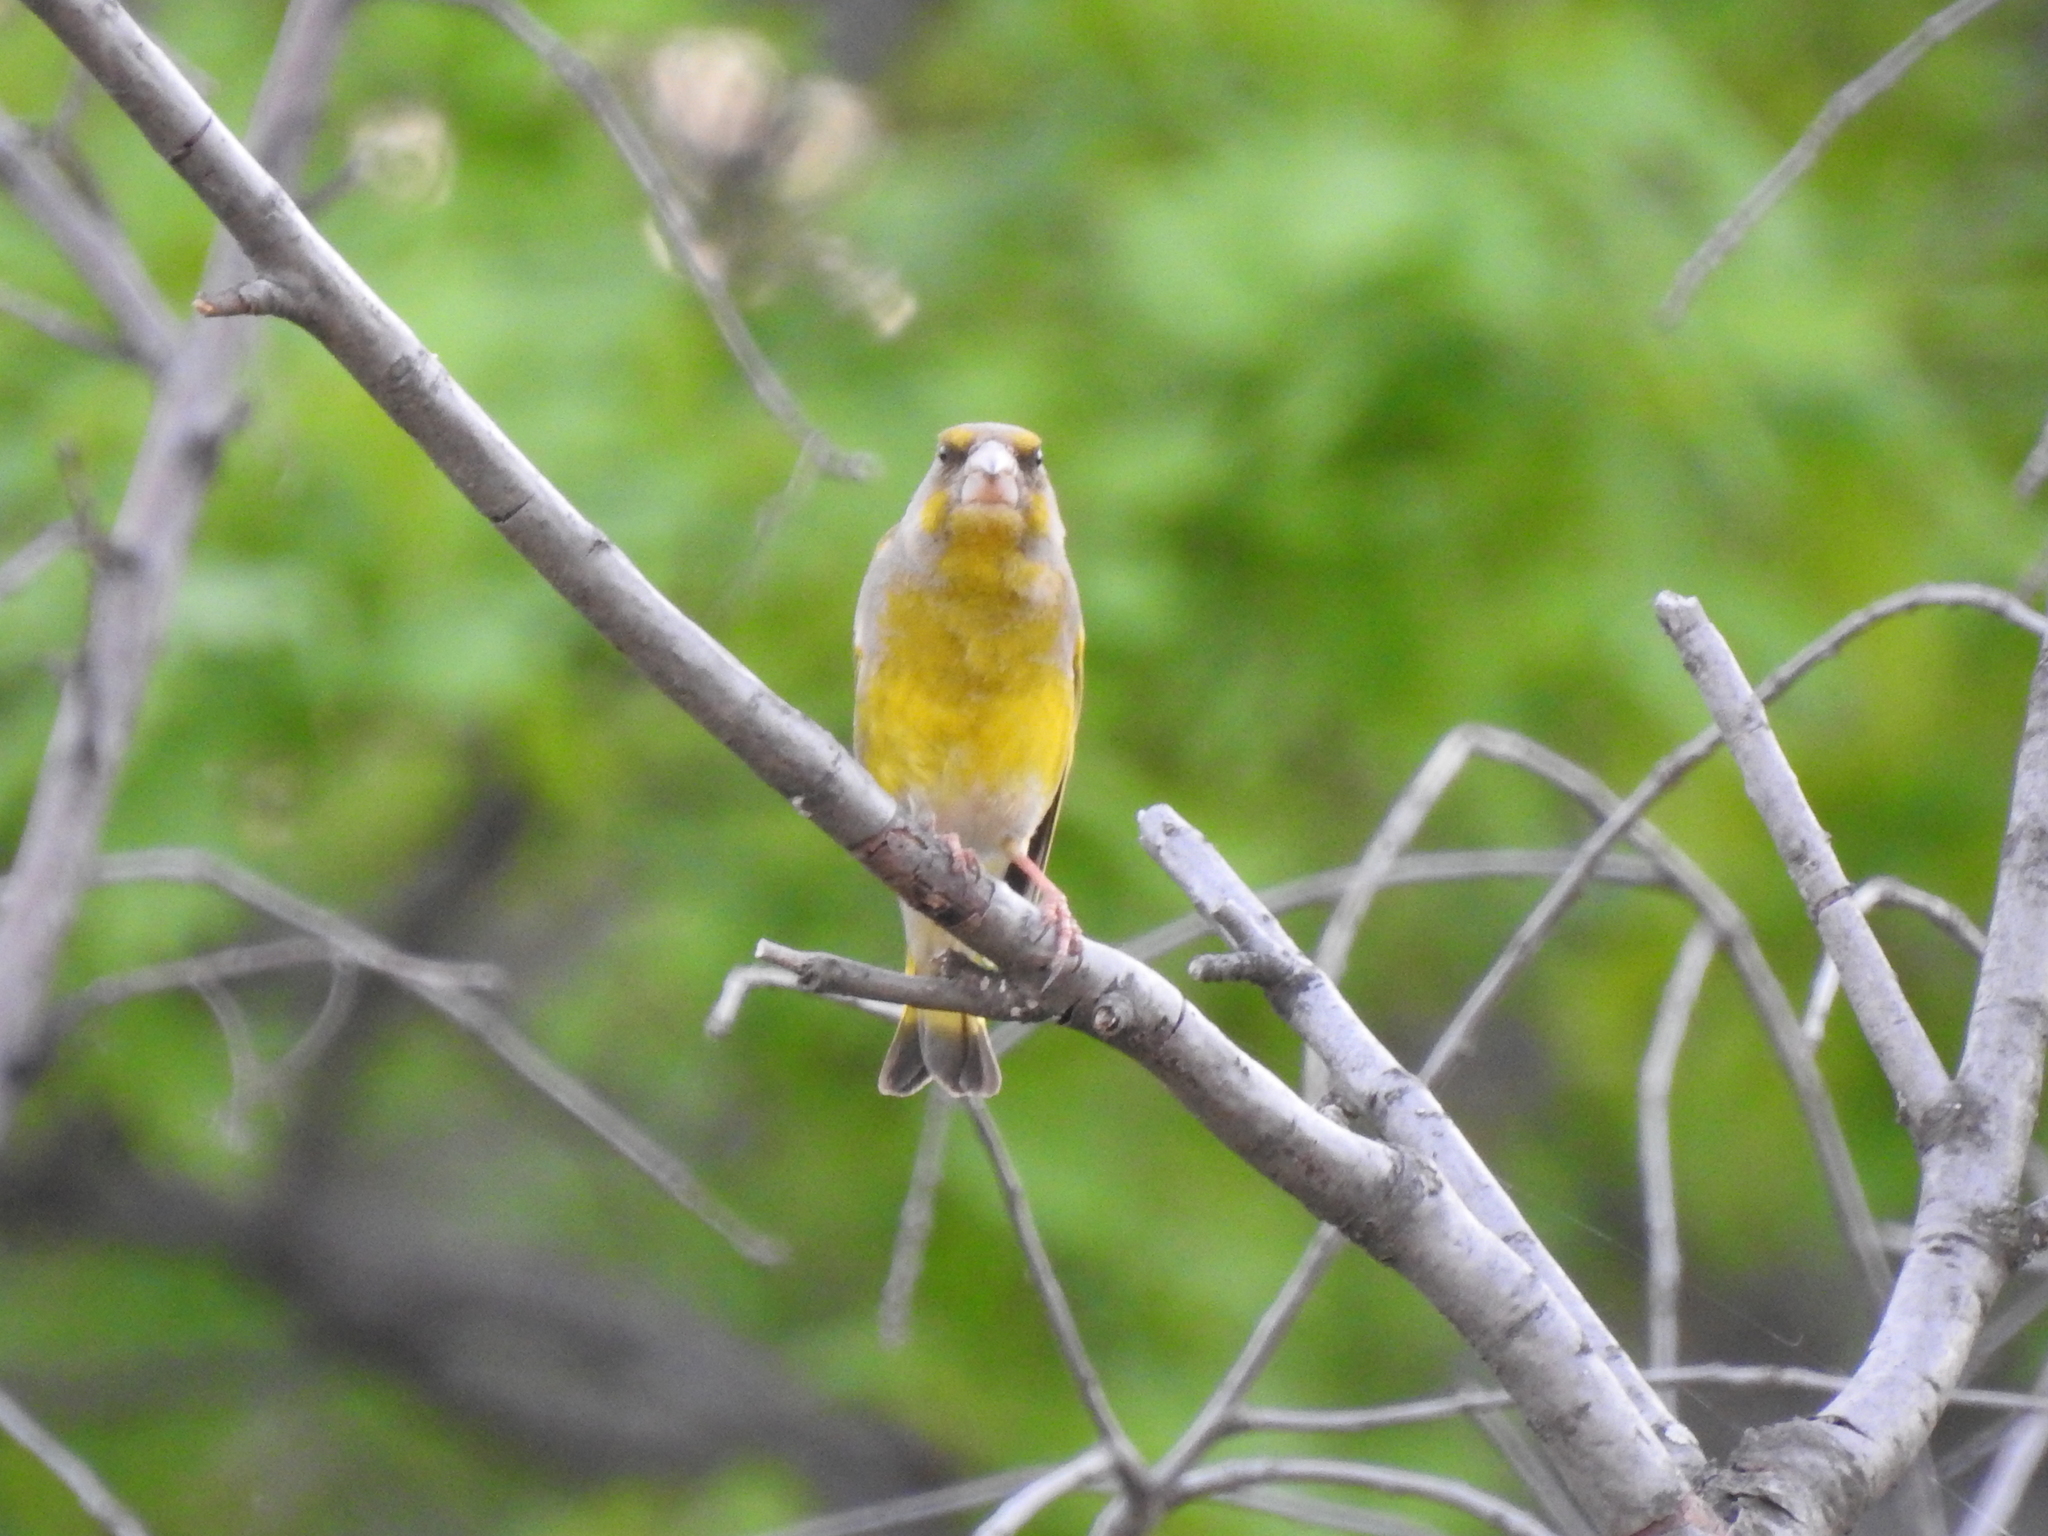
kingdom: Plantae
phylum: Tracheophyta
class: Liliopsida
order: Poales
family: Poaceae
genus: Chloris
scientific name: Chloris chloris
